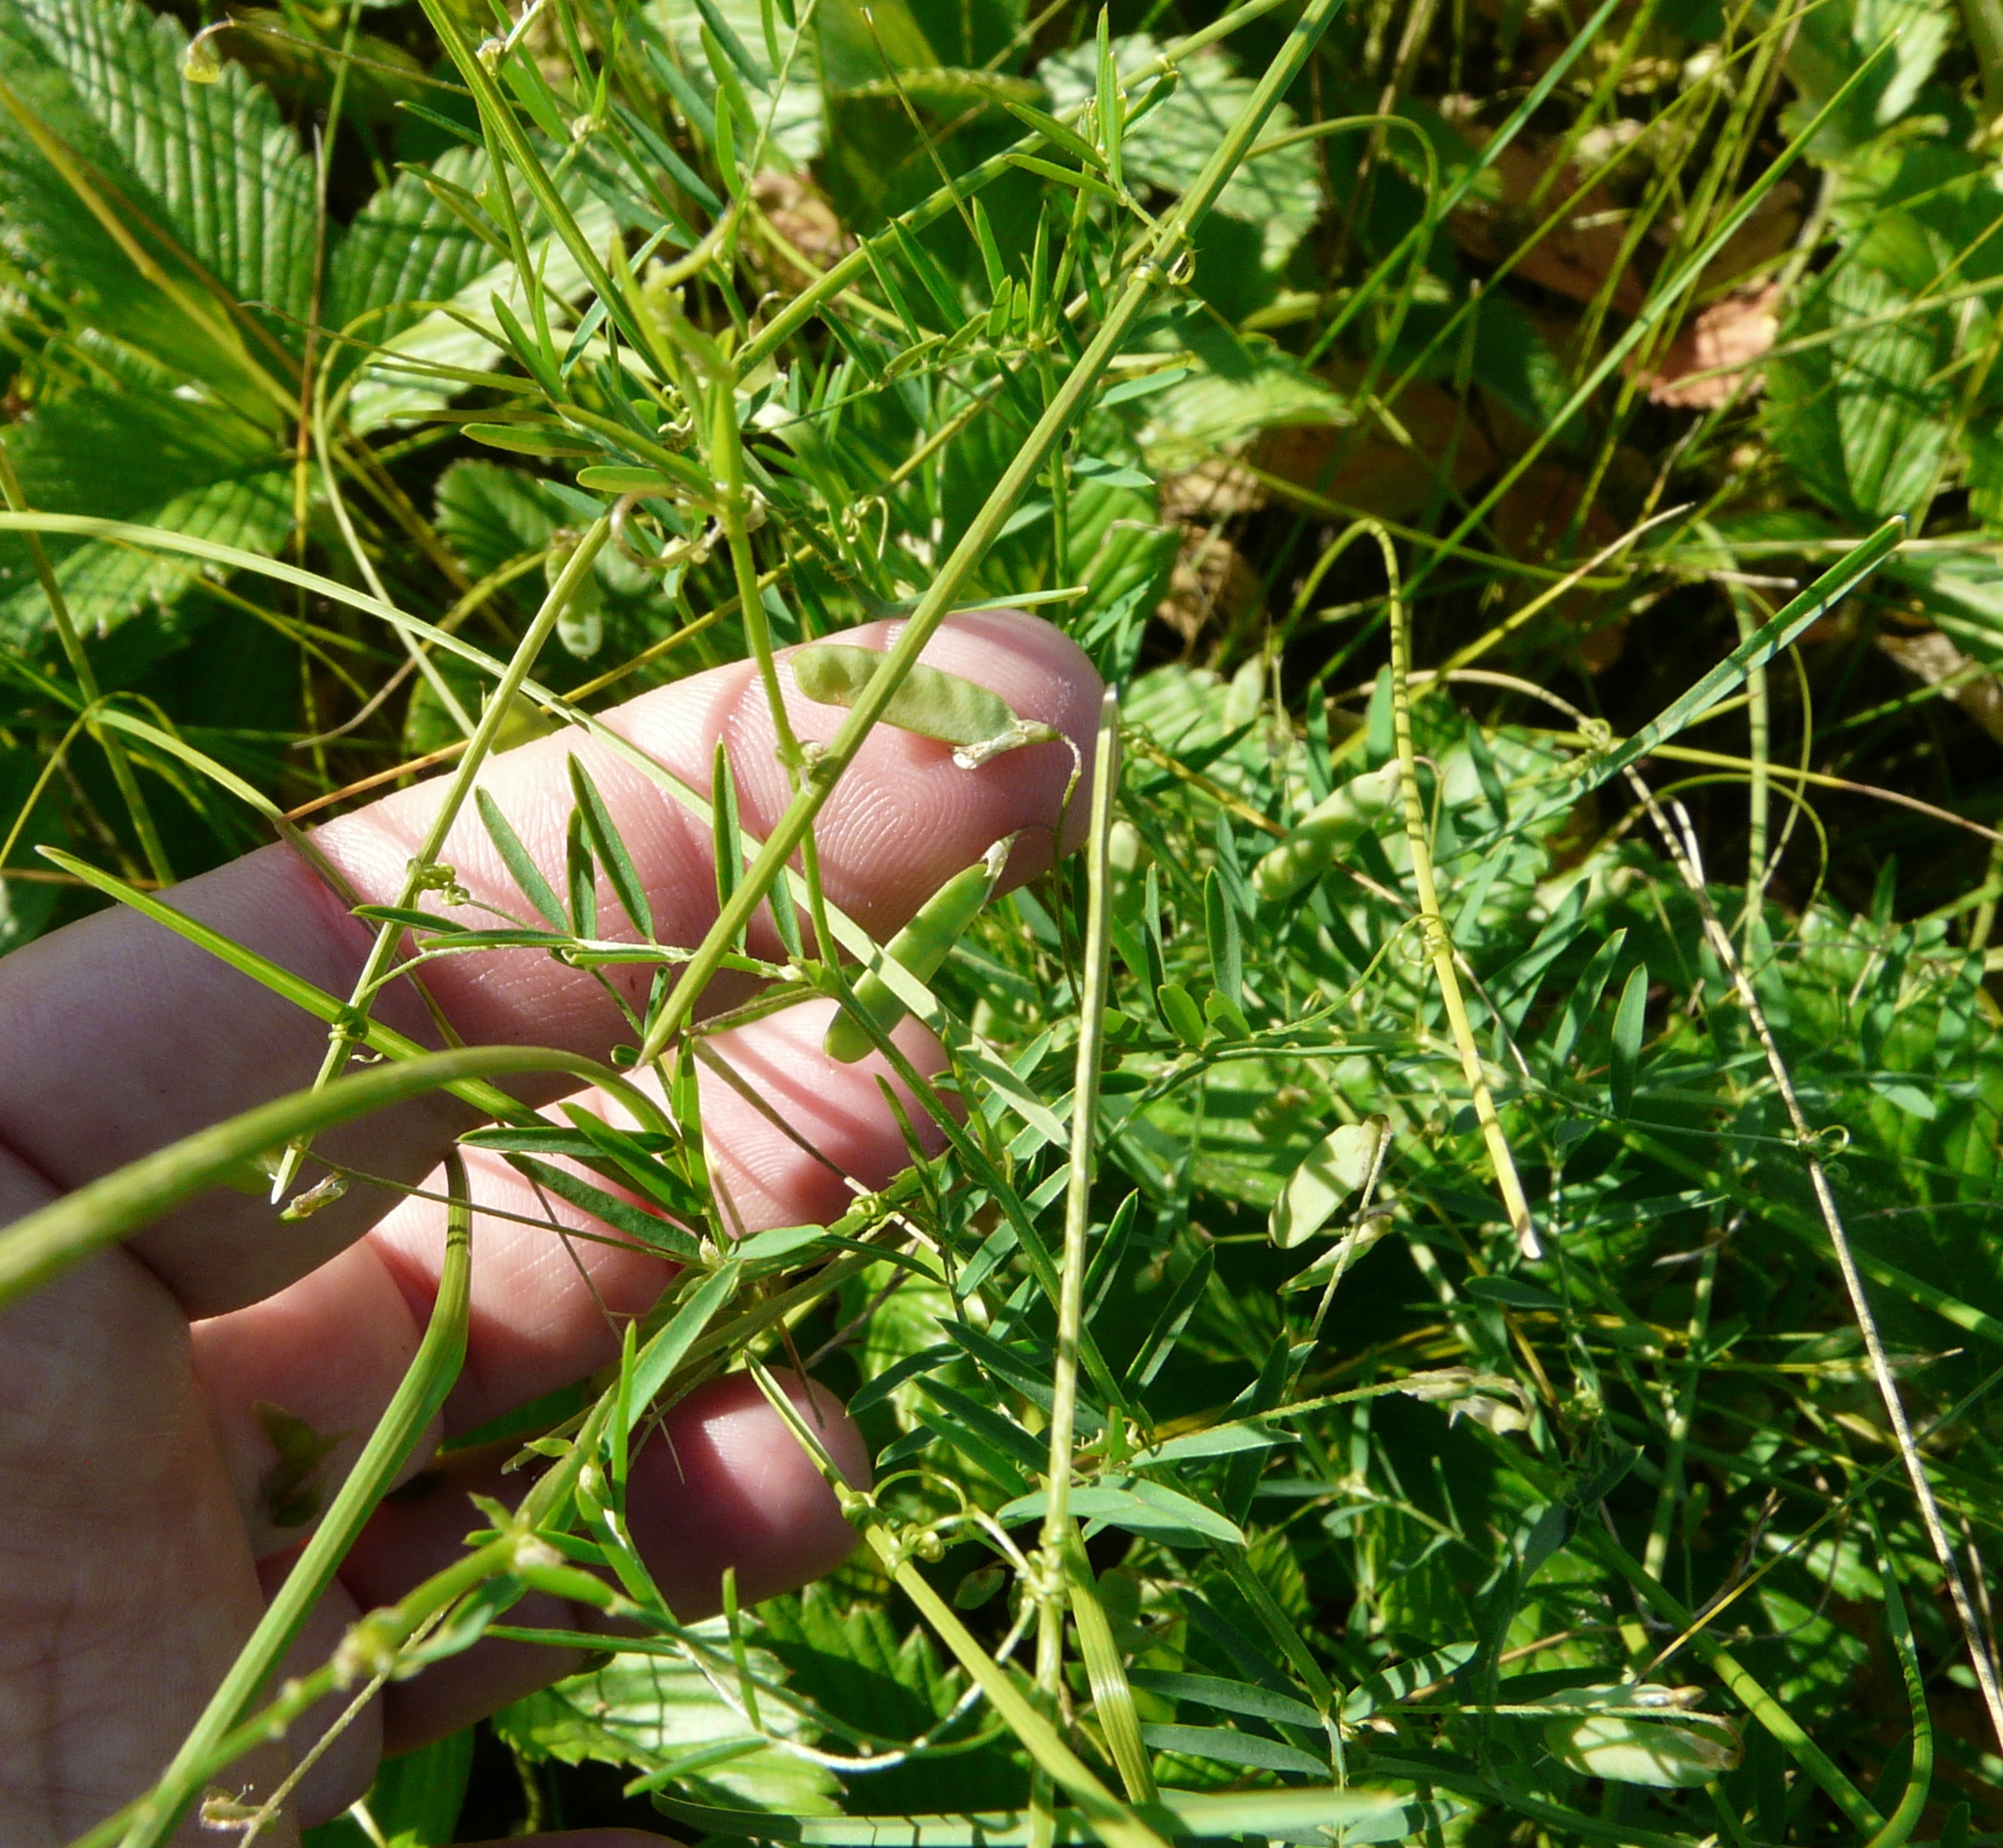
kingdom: Plantae
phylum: Tracheophyta
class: Magnoliopsida
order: Fabales
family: Fabaceae
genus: Vicia
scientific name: Vicia tetrasperma
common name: Smooth tare
